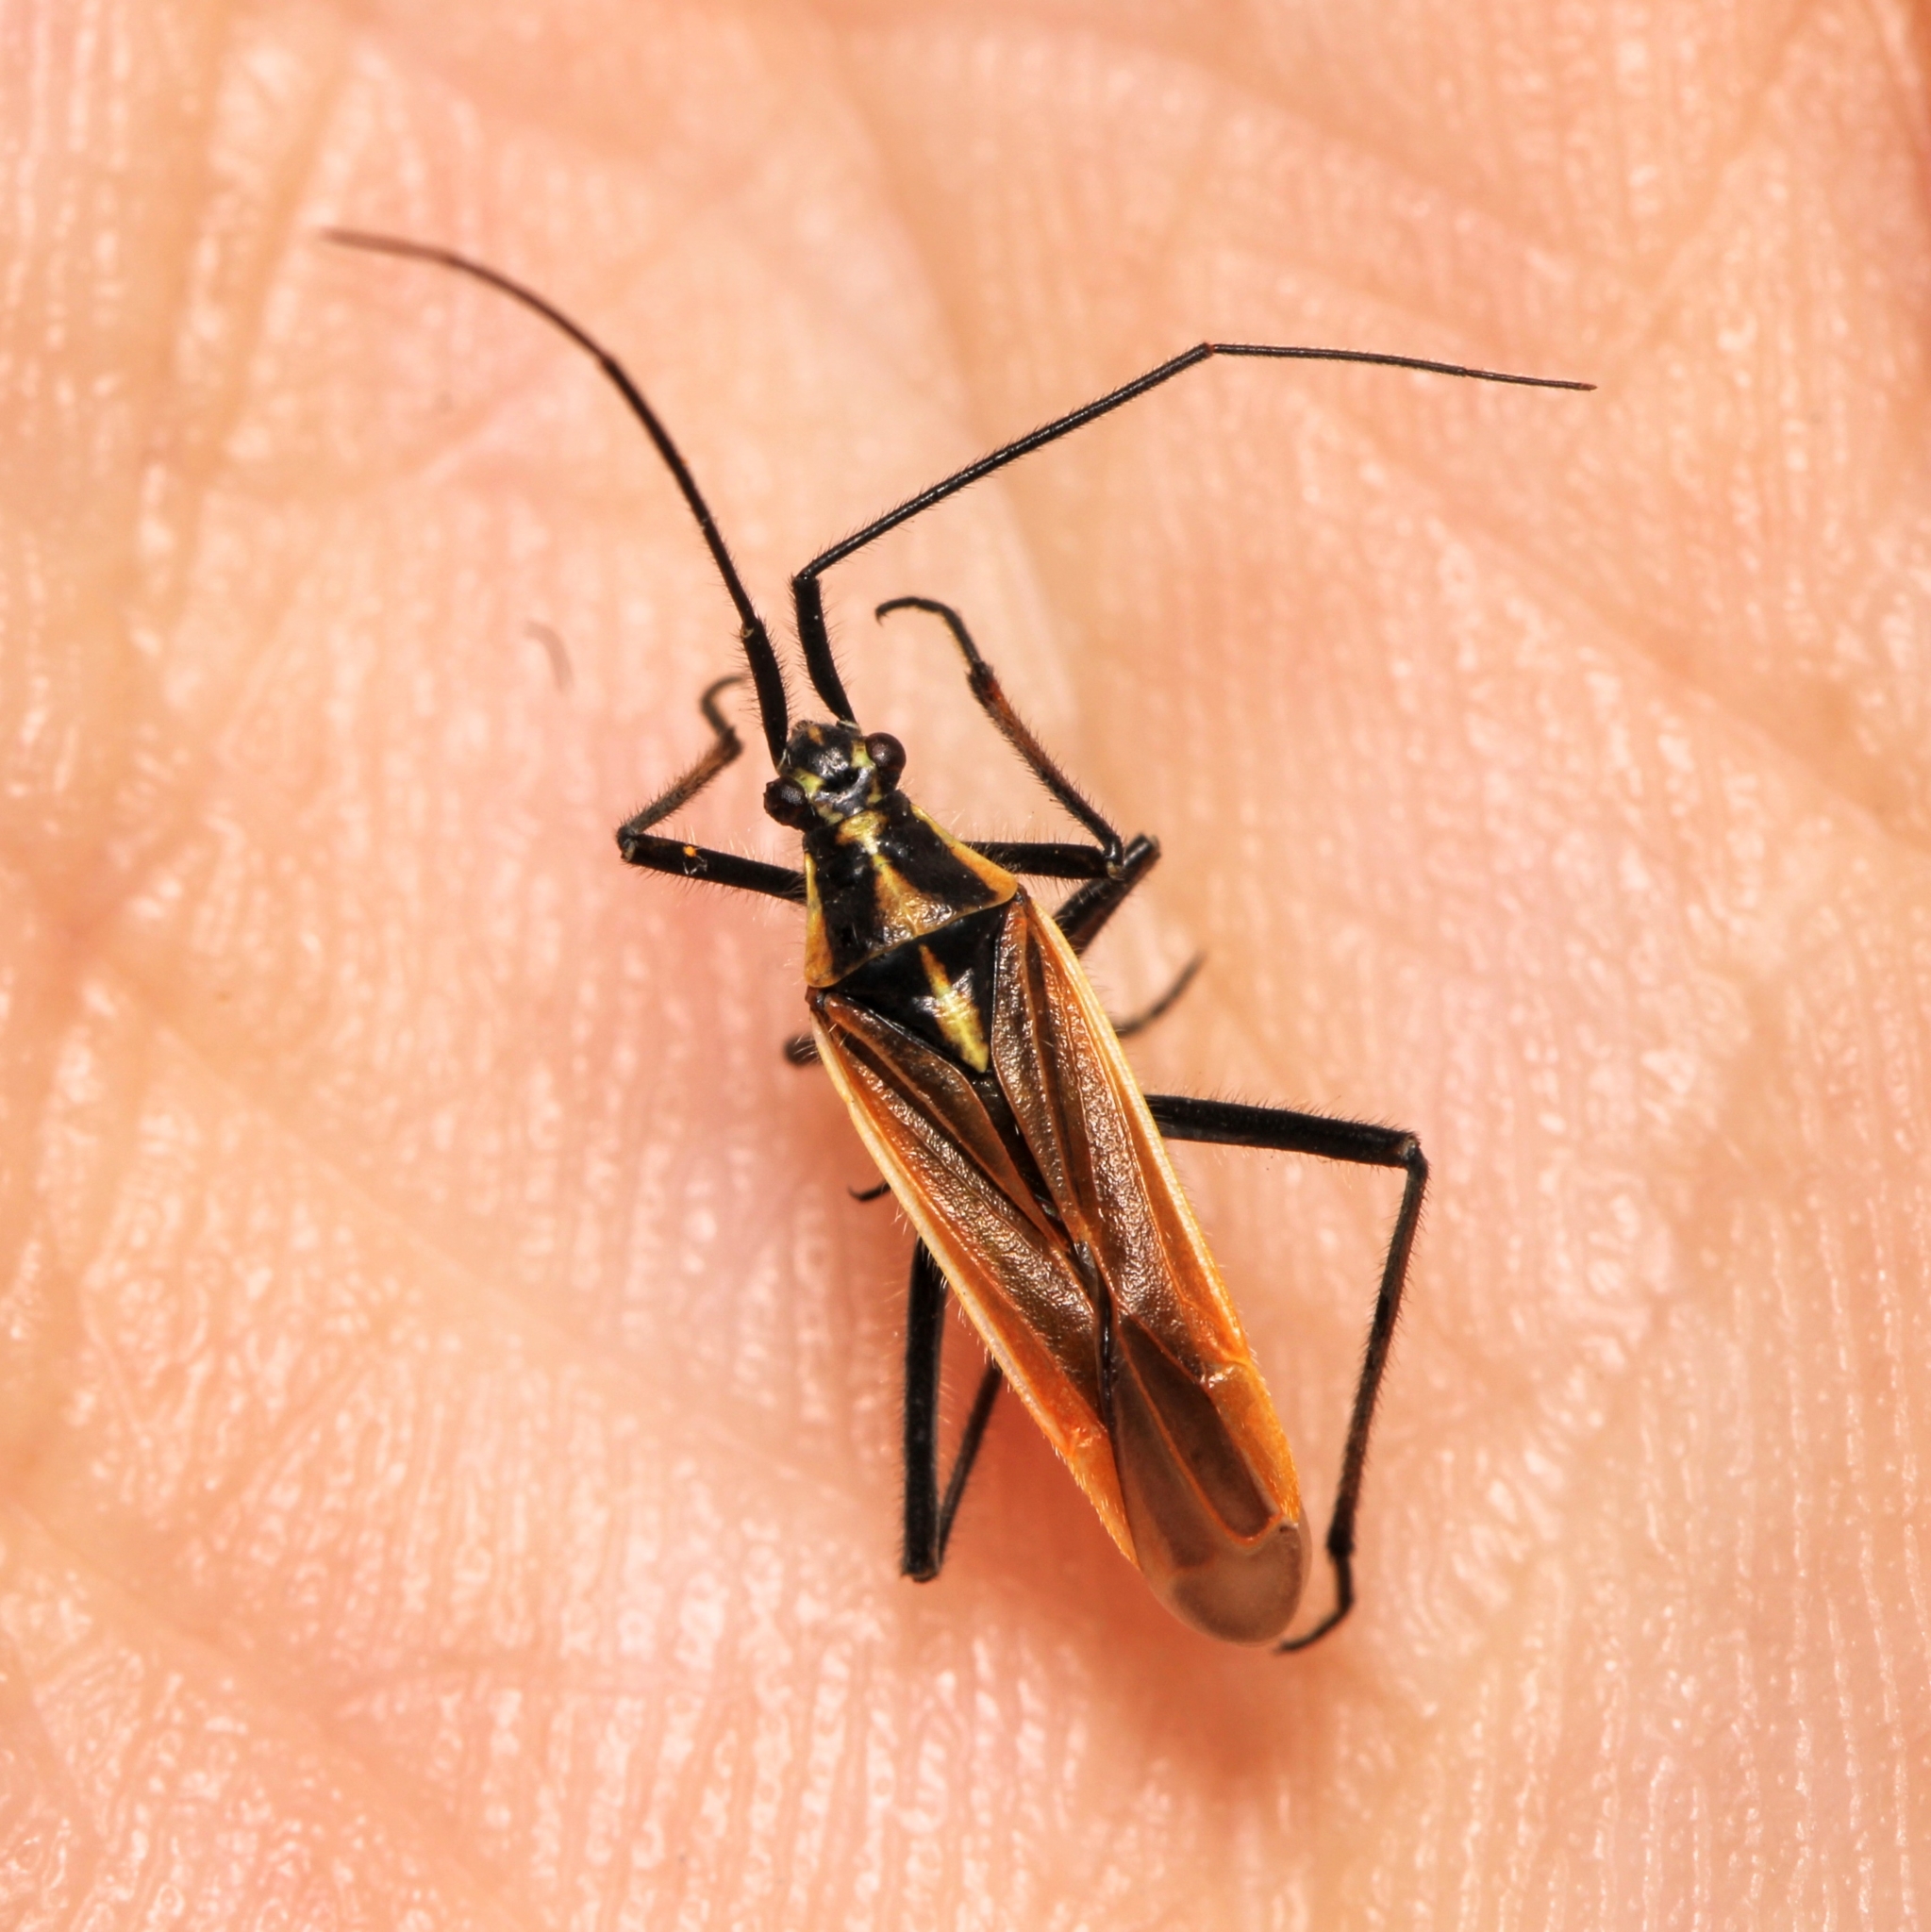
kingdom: Animalia
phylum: Arthropoda
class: Insecta
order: Hemiptera
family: Miridae
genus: Leptopterna
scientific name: Leptopterna dolabrata
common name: Meadow plant bug
